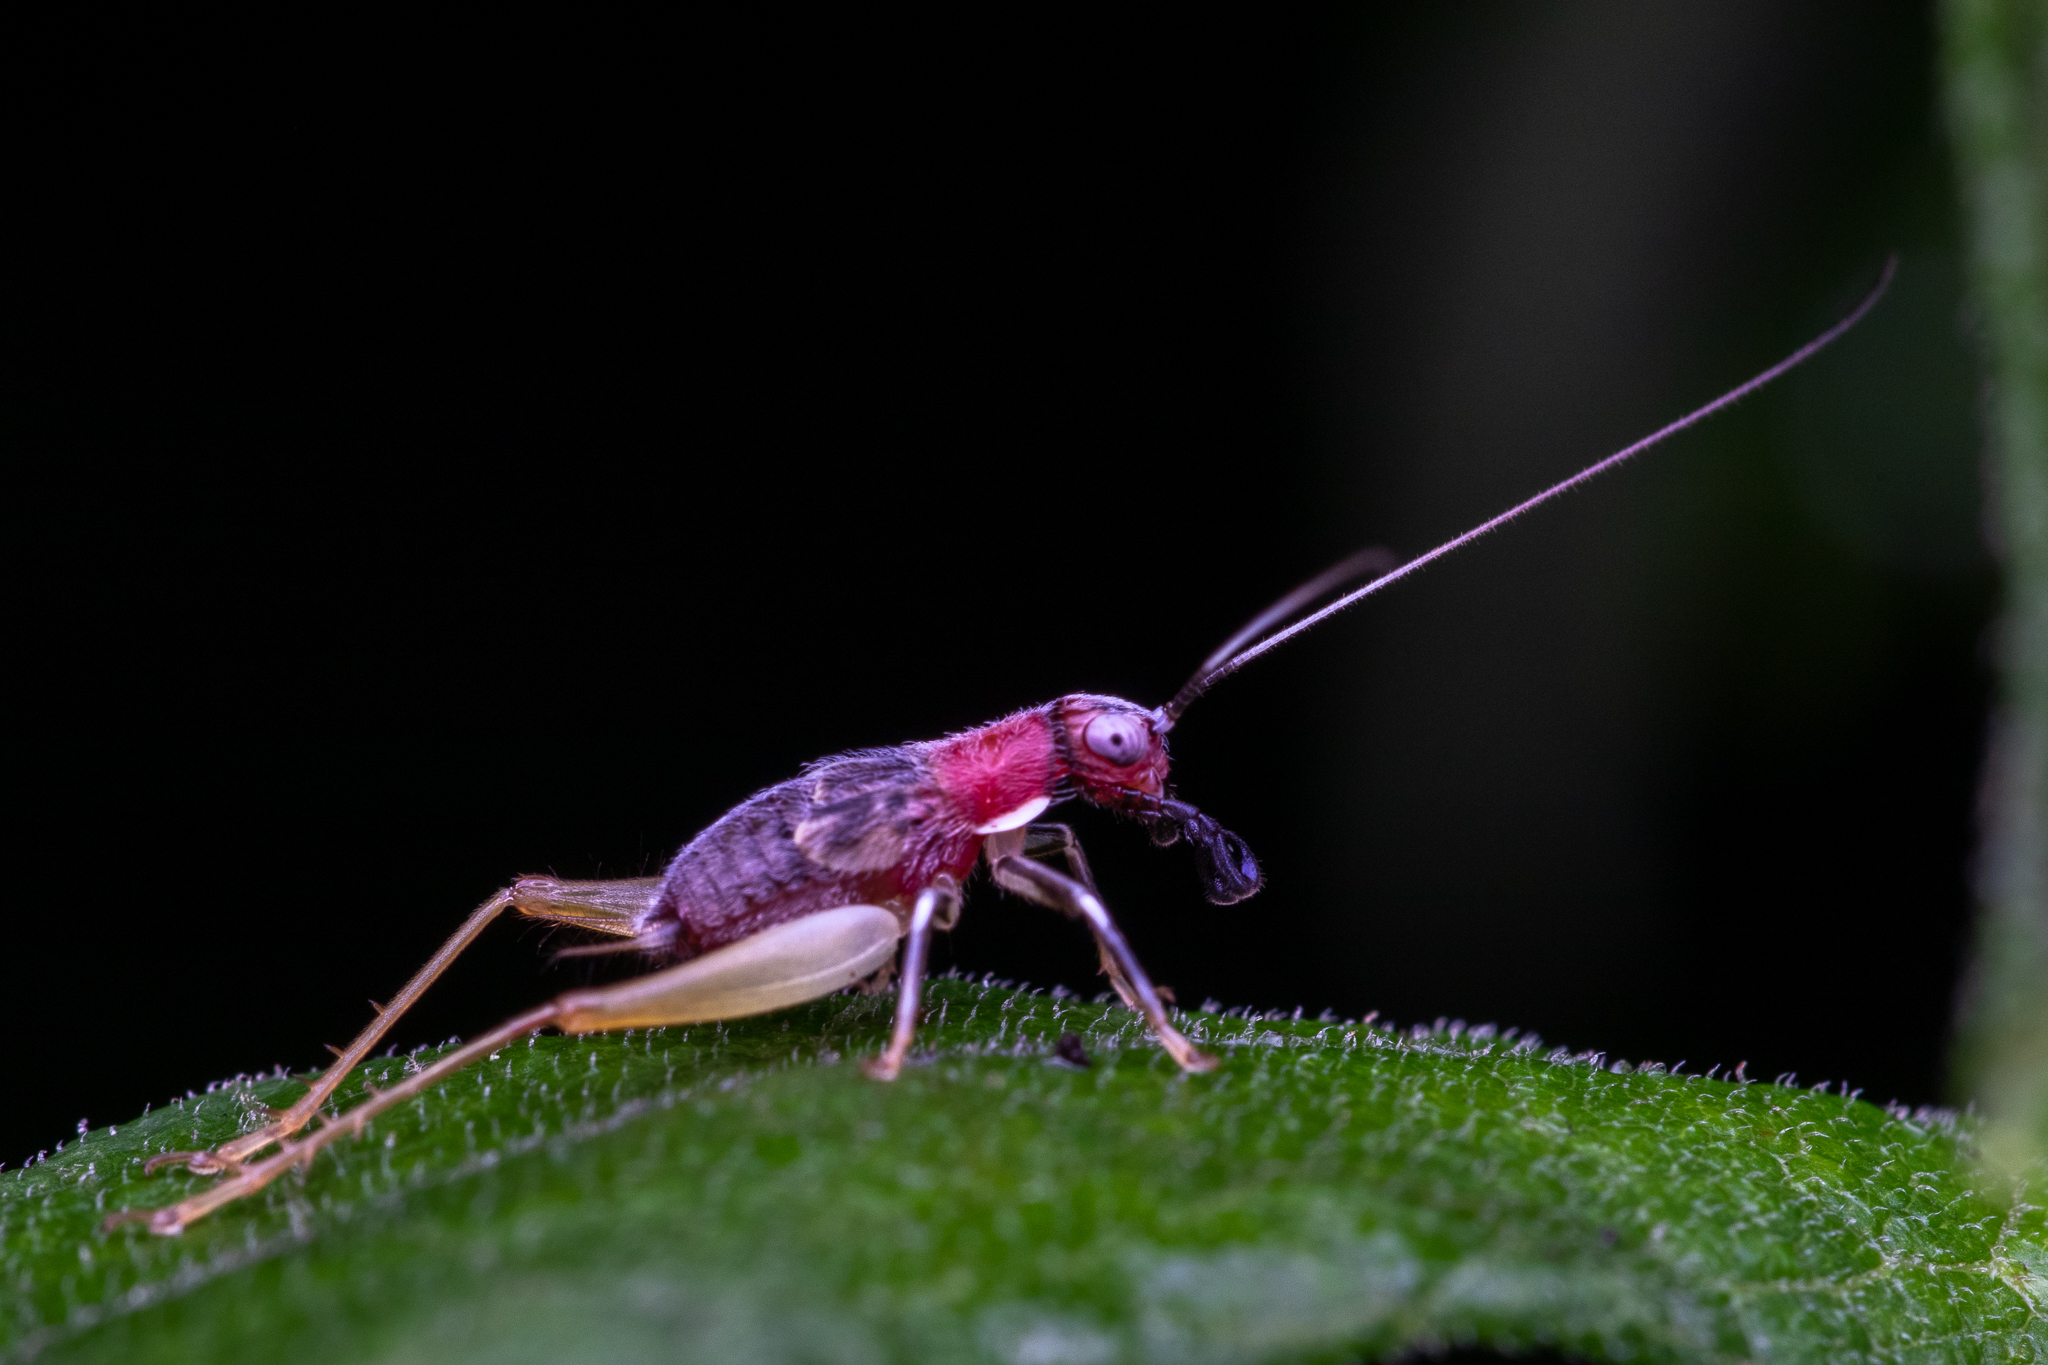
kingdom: Animalia
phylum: Arthropoda
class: Insecta
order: Orthoptera
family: Trigonidiidae
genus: Phyllopalpus
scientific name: Phyllopalpus pulchellus
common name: Handsome trig
